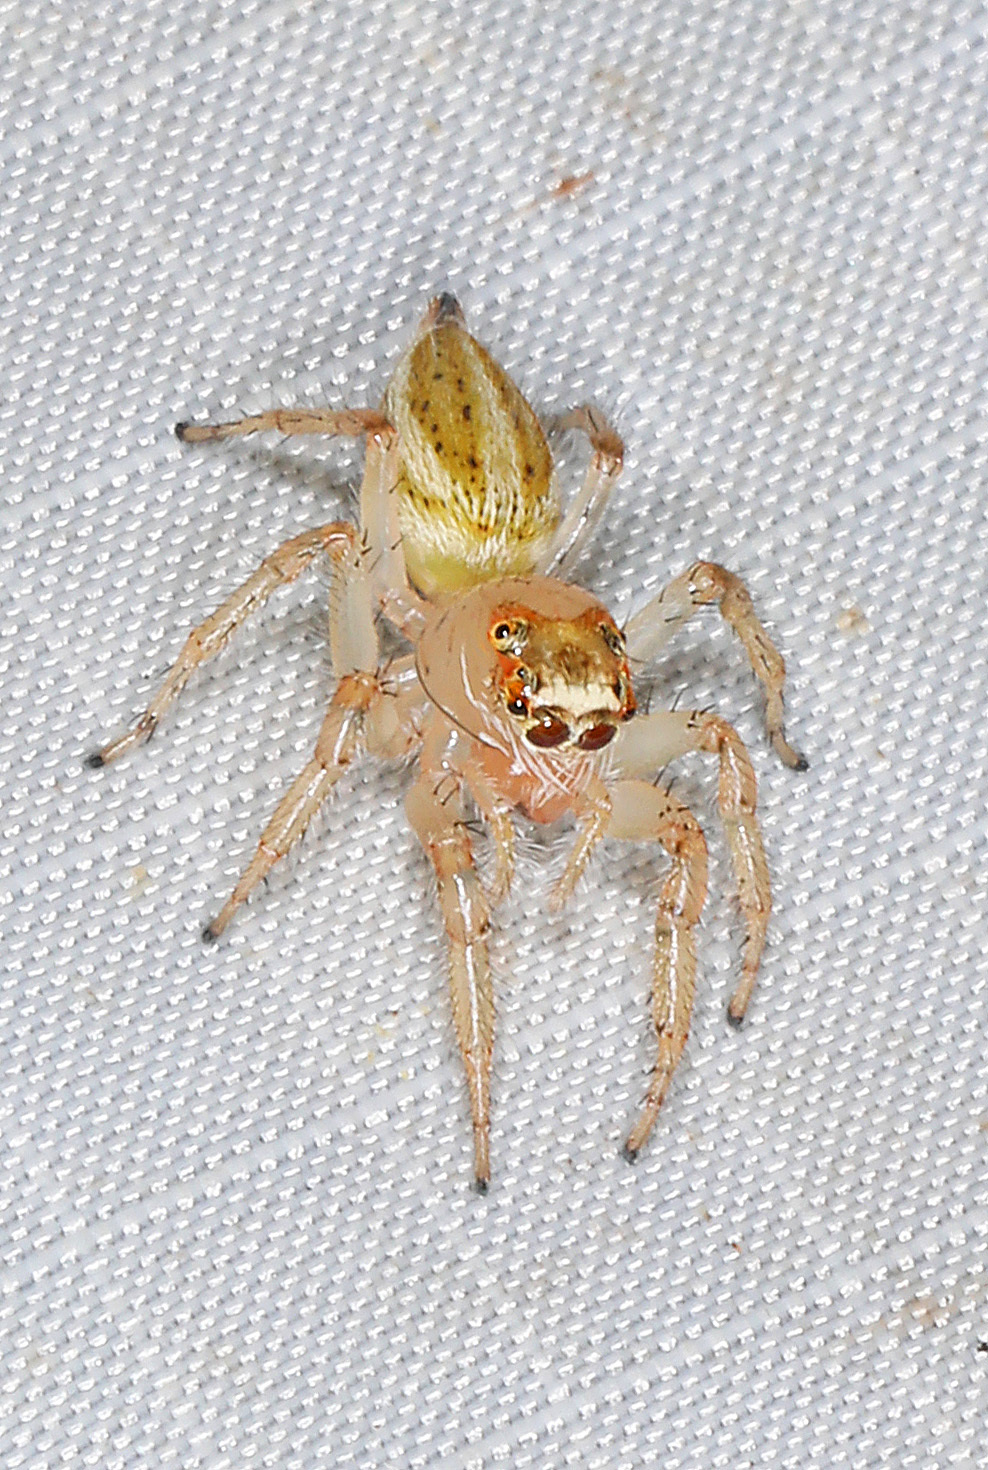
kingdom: Animalia
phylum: Arthropoda
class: Arachnida
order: Araneae
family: Salticidae
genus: Colonus
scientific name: Colonus sylvanus
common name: Jumping spiders
